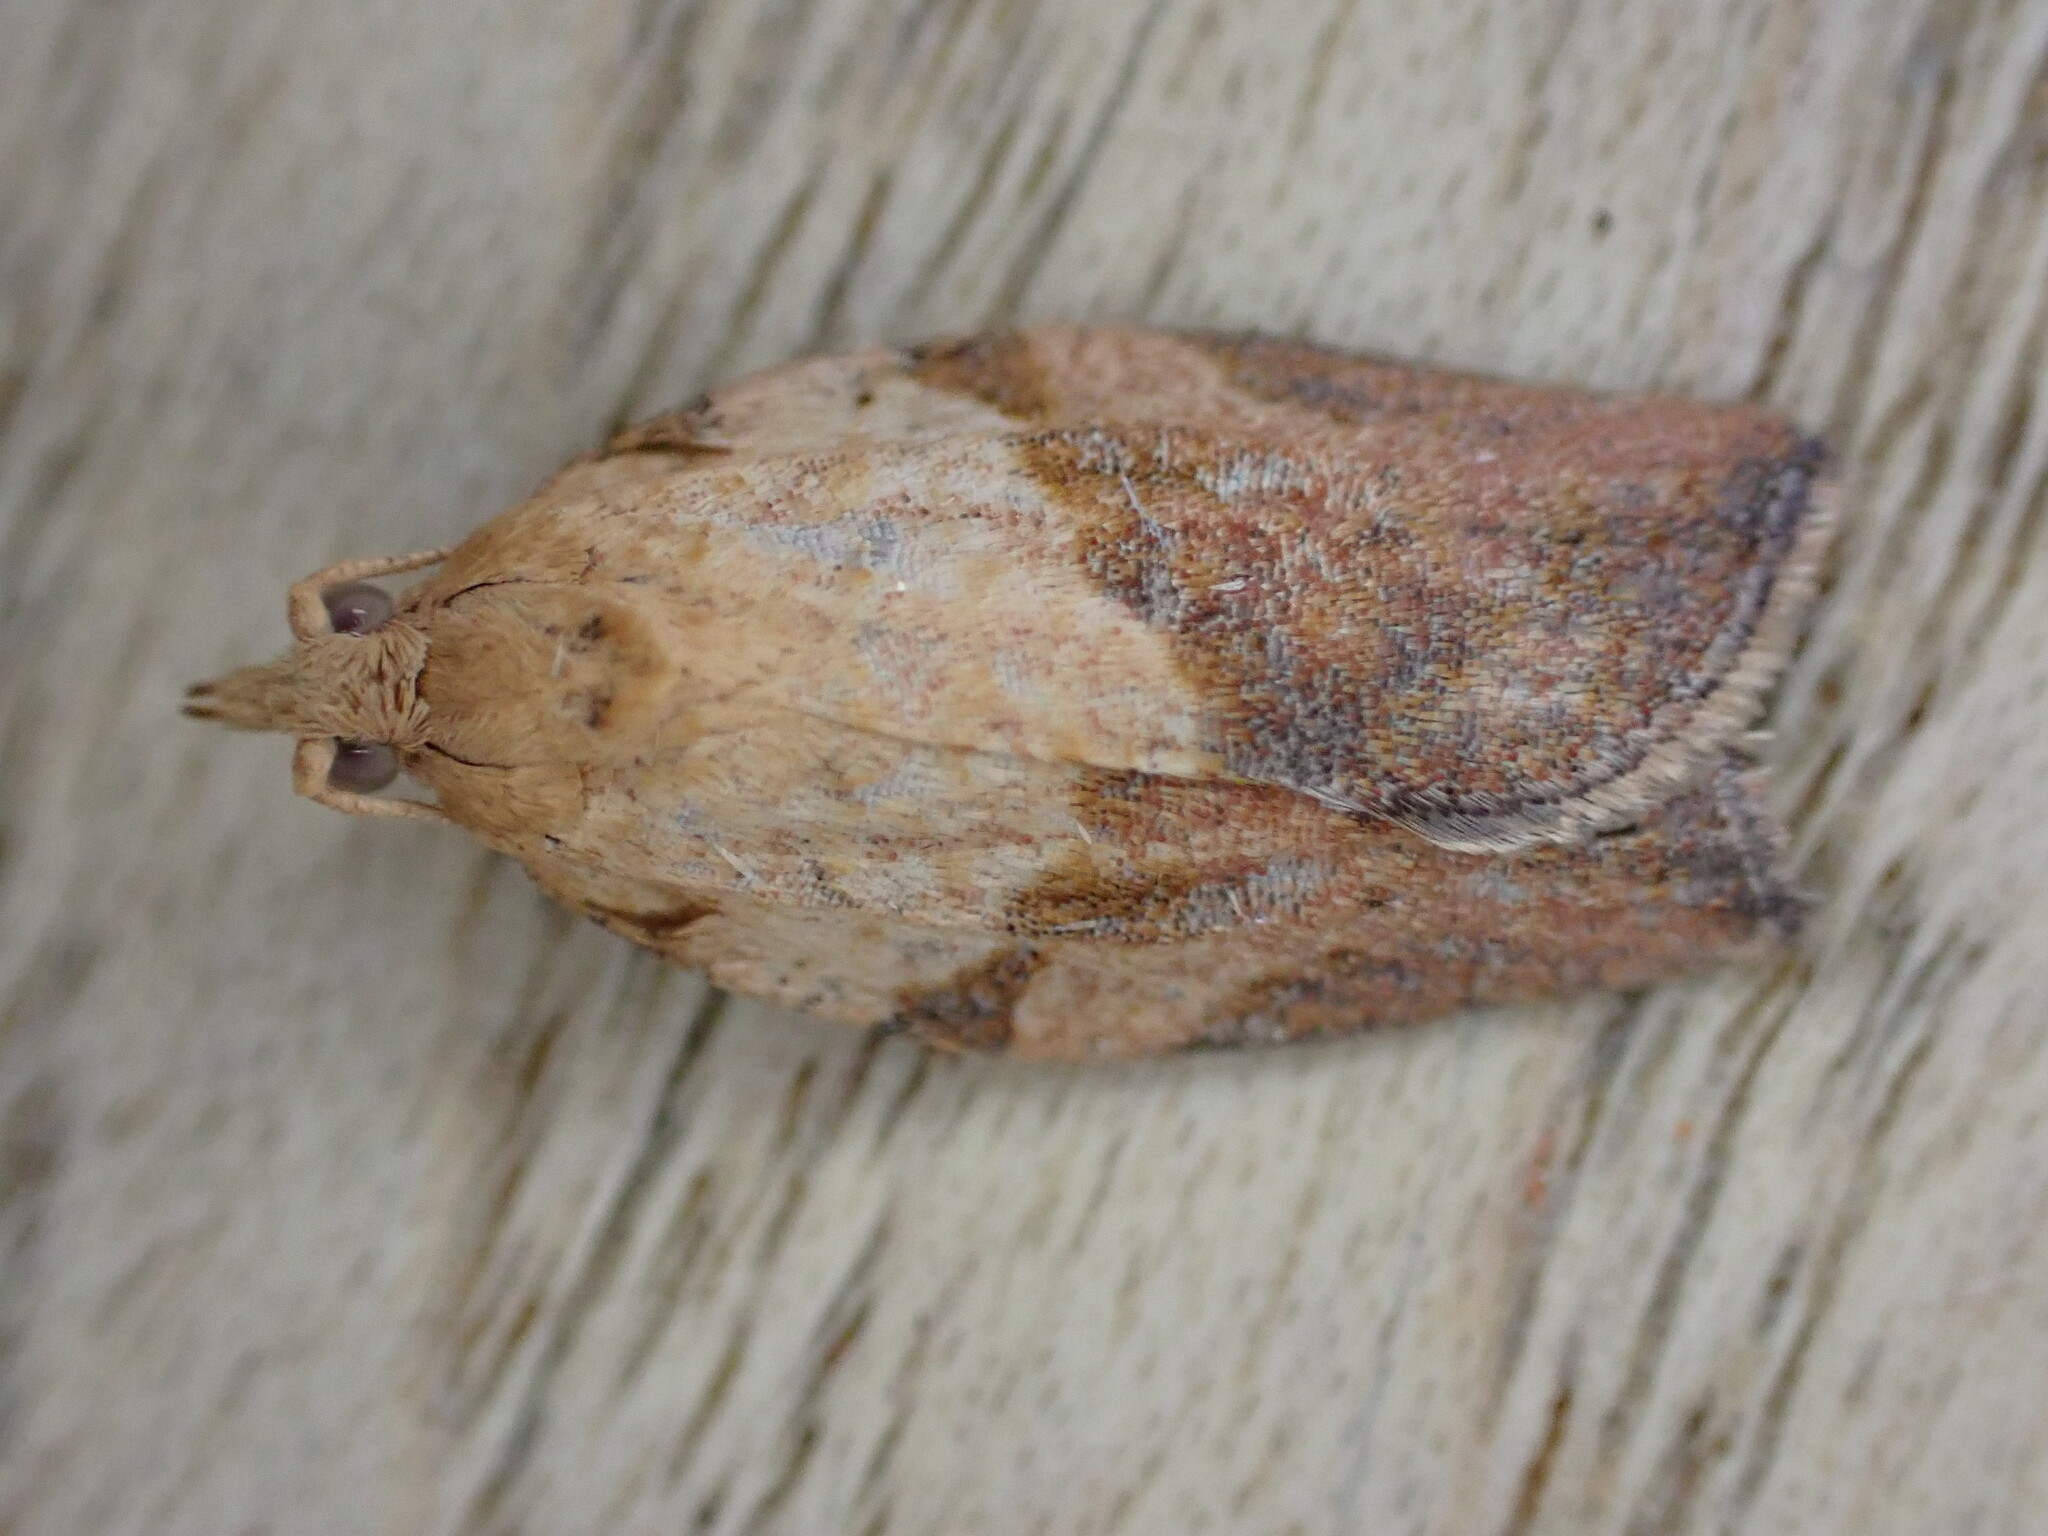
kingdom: Animalia
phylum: Arthropoda
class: Insecta
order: Lepidoptera
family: Tortricidae
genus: Epiphyas
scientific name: Epiphyas postvittana
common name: Light brown apple moth
